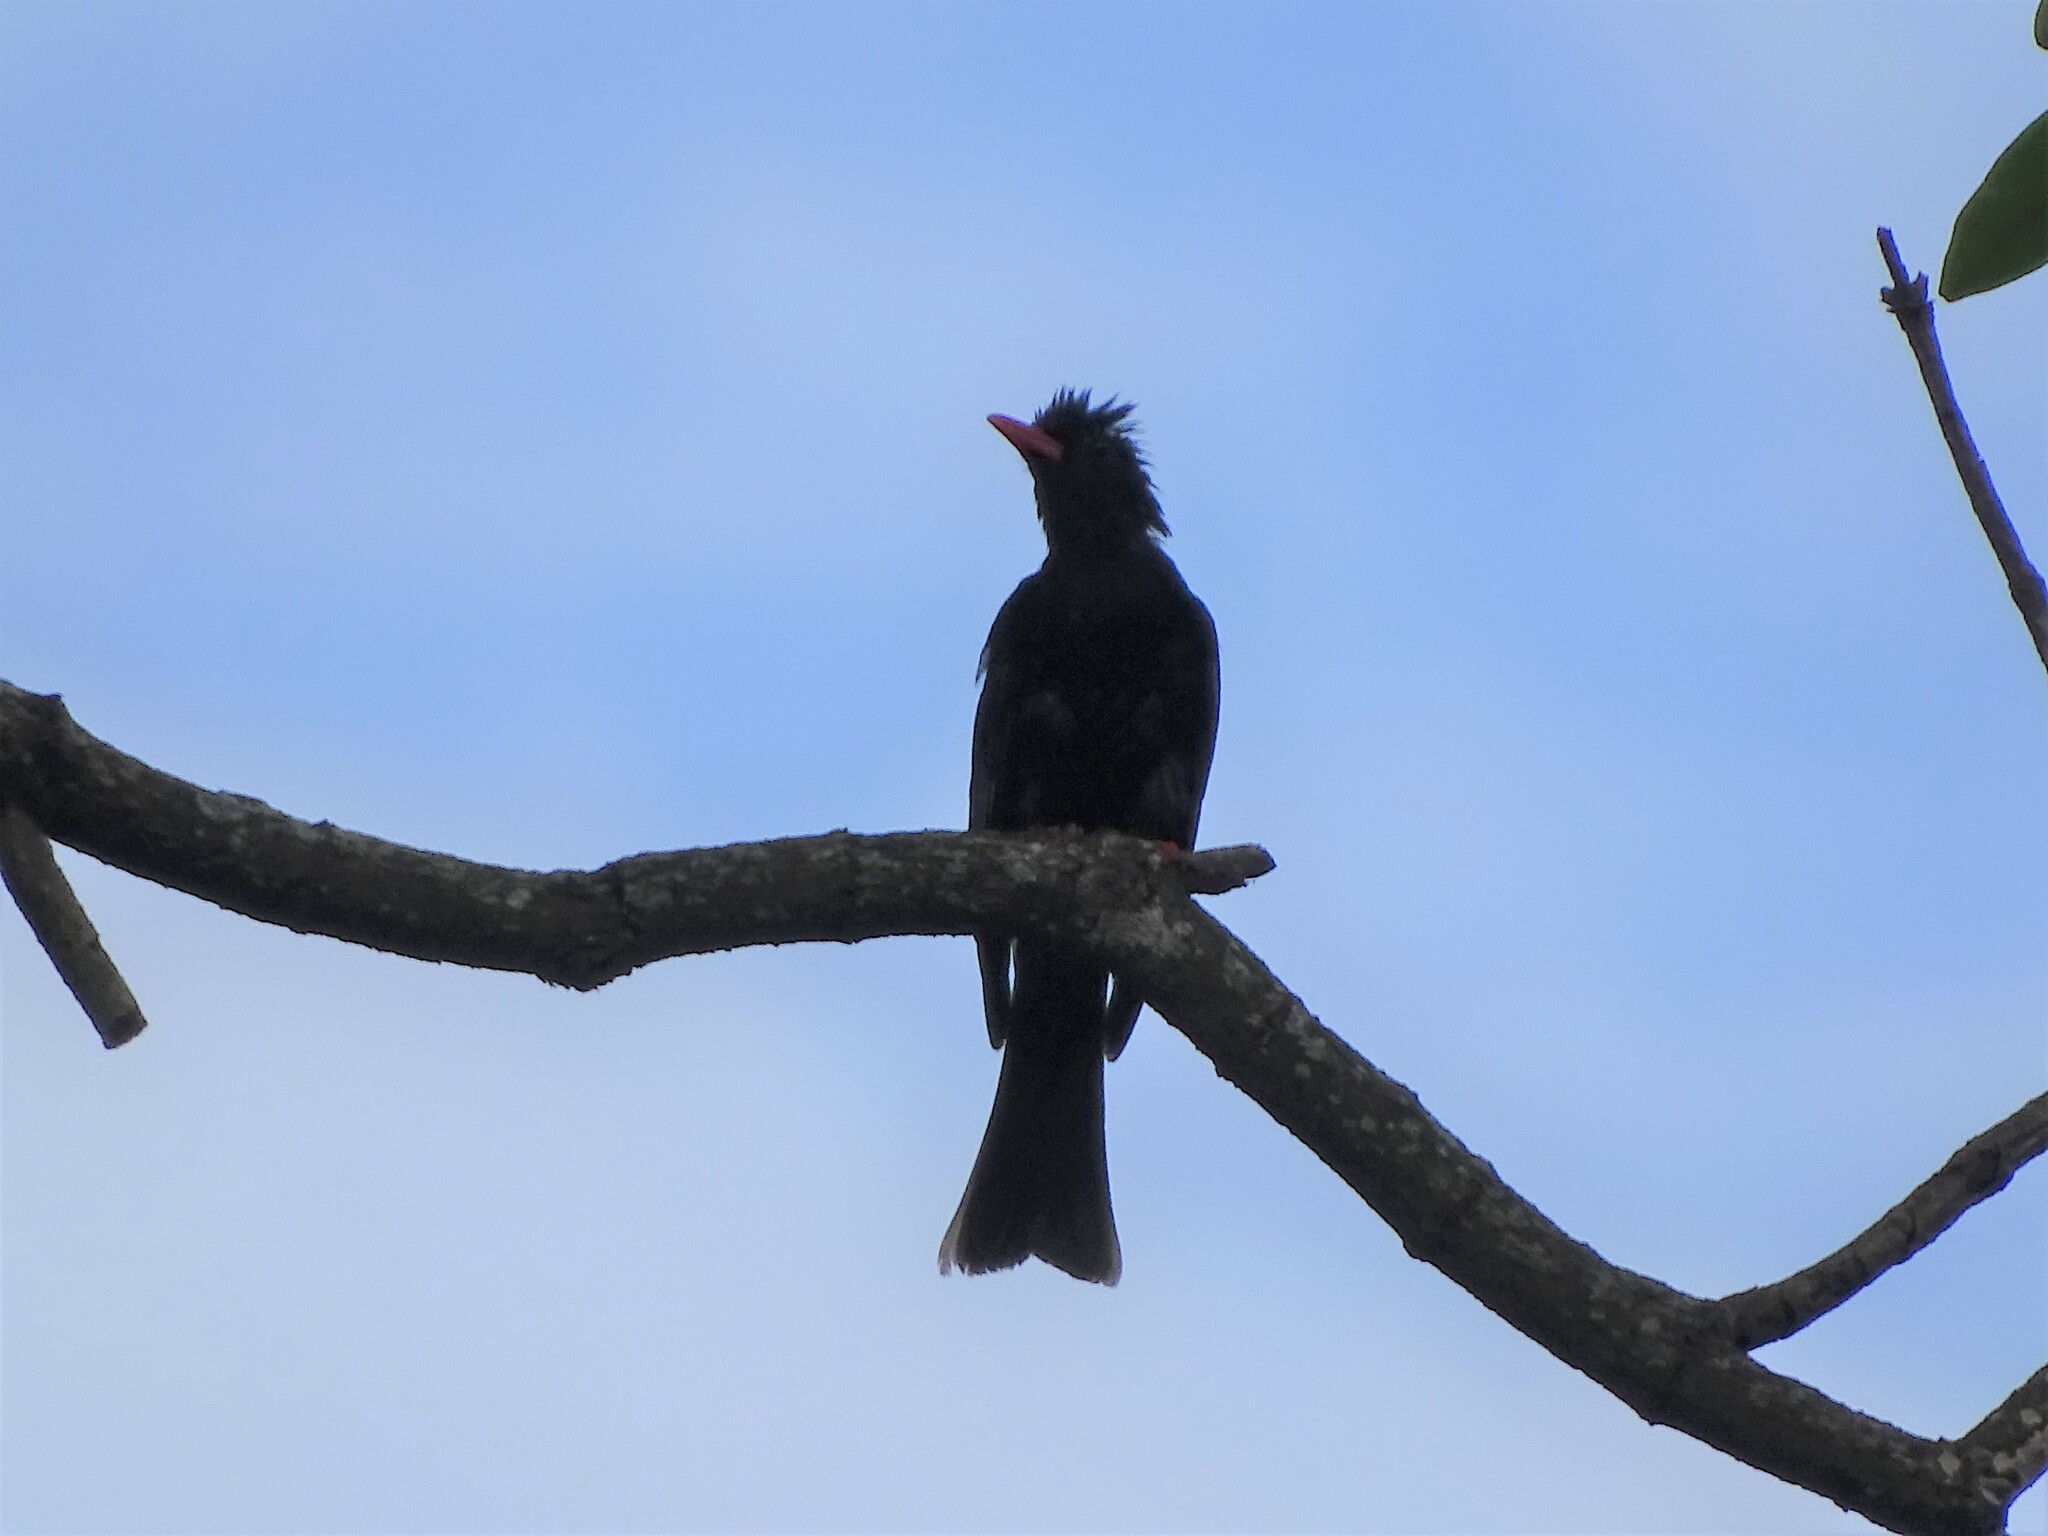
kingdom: Animalia
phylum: Chordata
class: Aves
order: Passeriformes
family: Pycnonotidae
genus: Hypsipetes
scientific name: Hypsipetes leucocephalus
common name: Black bulbul
